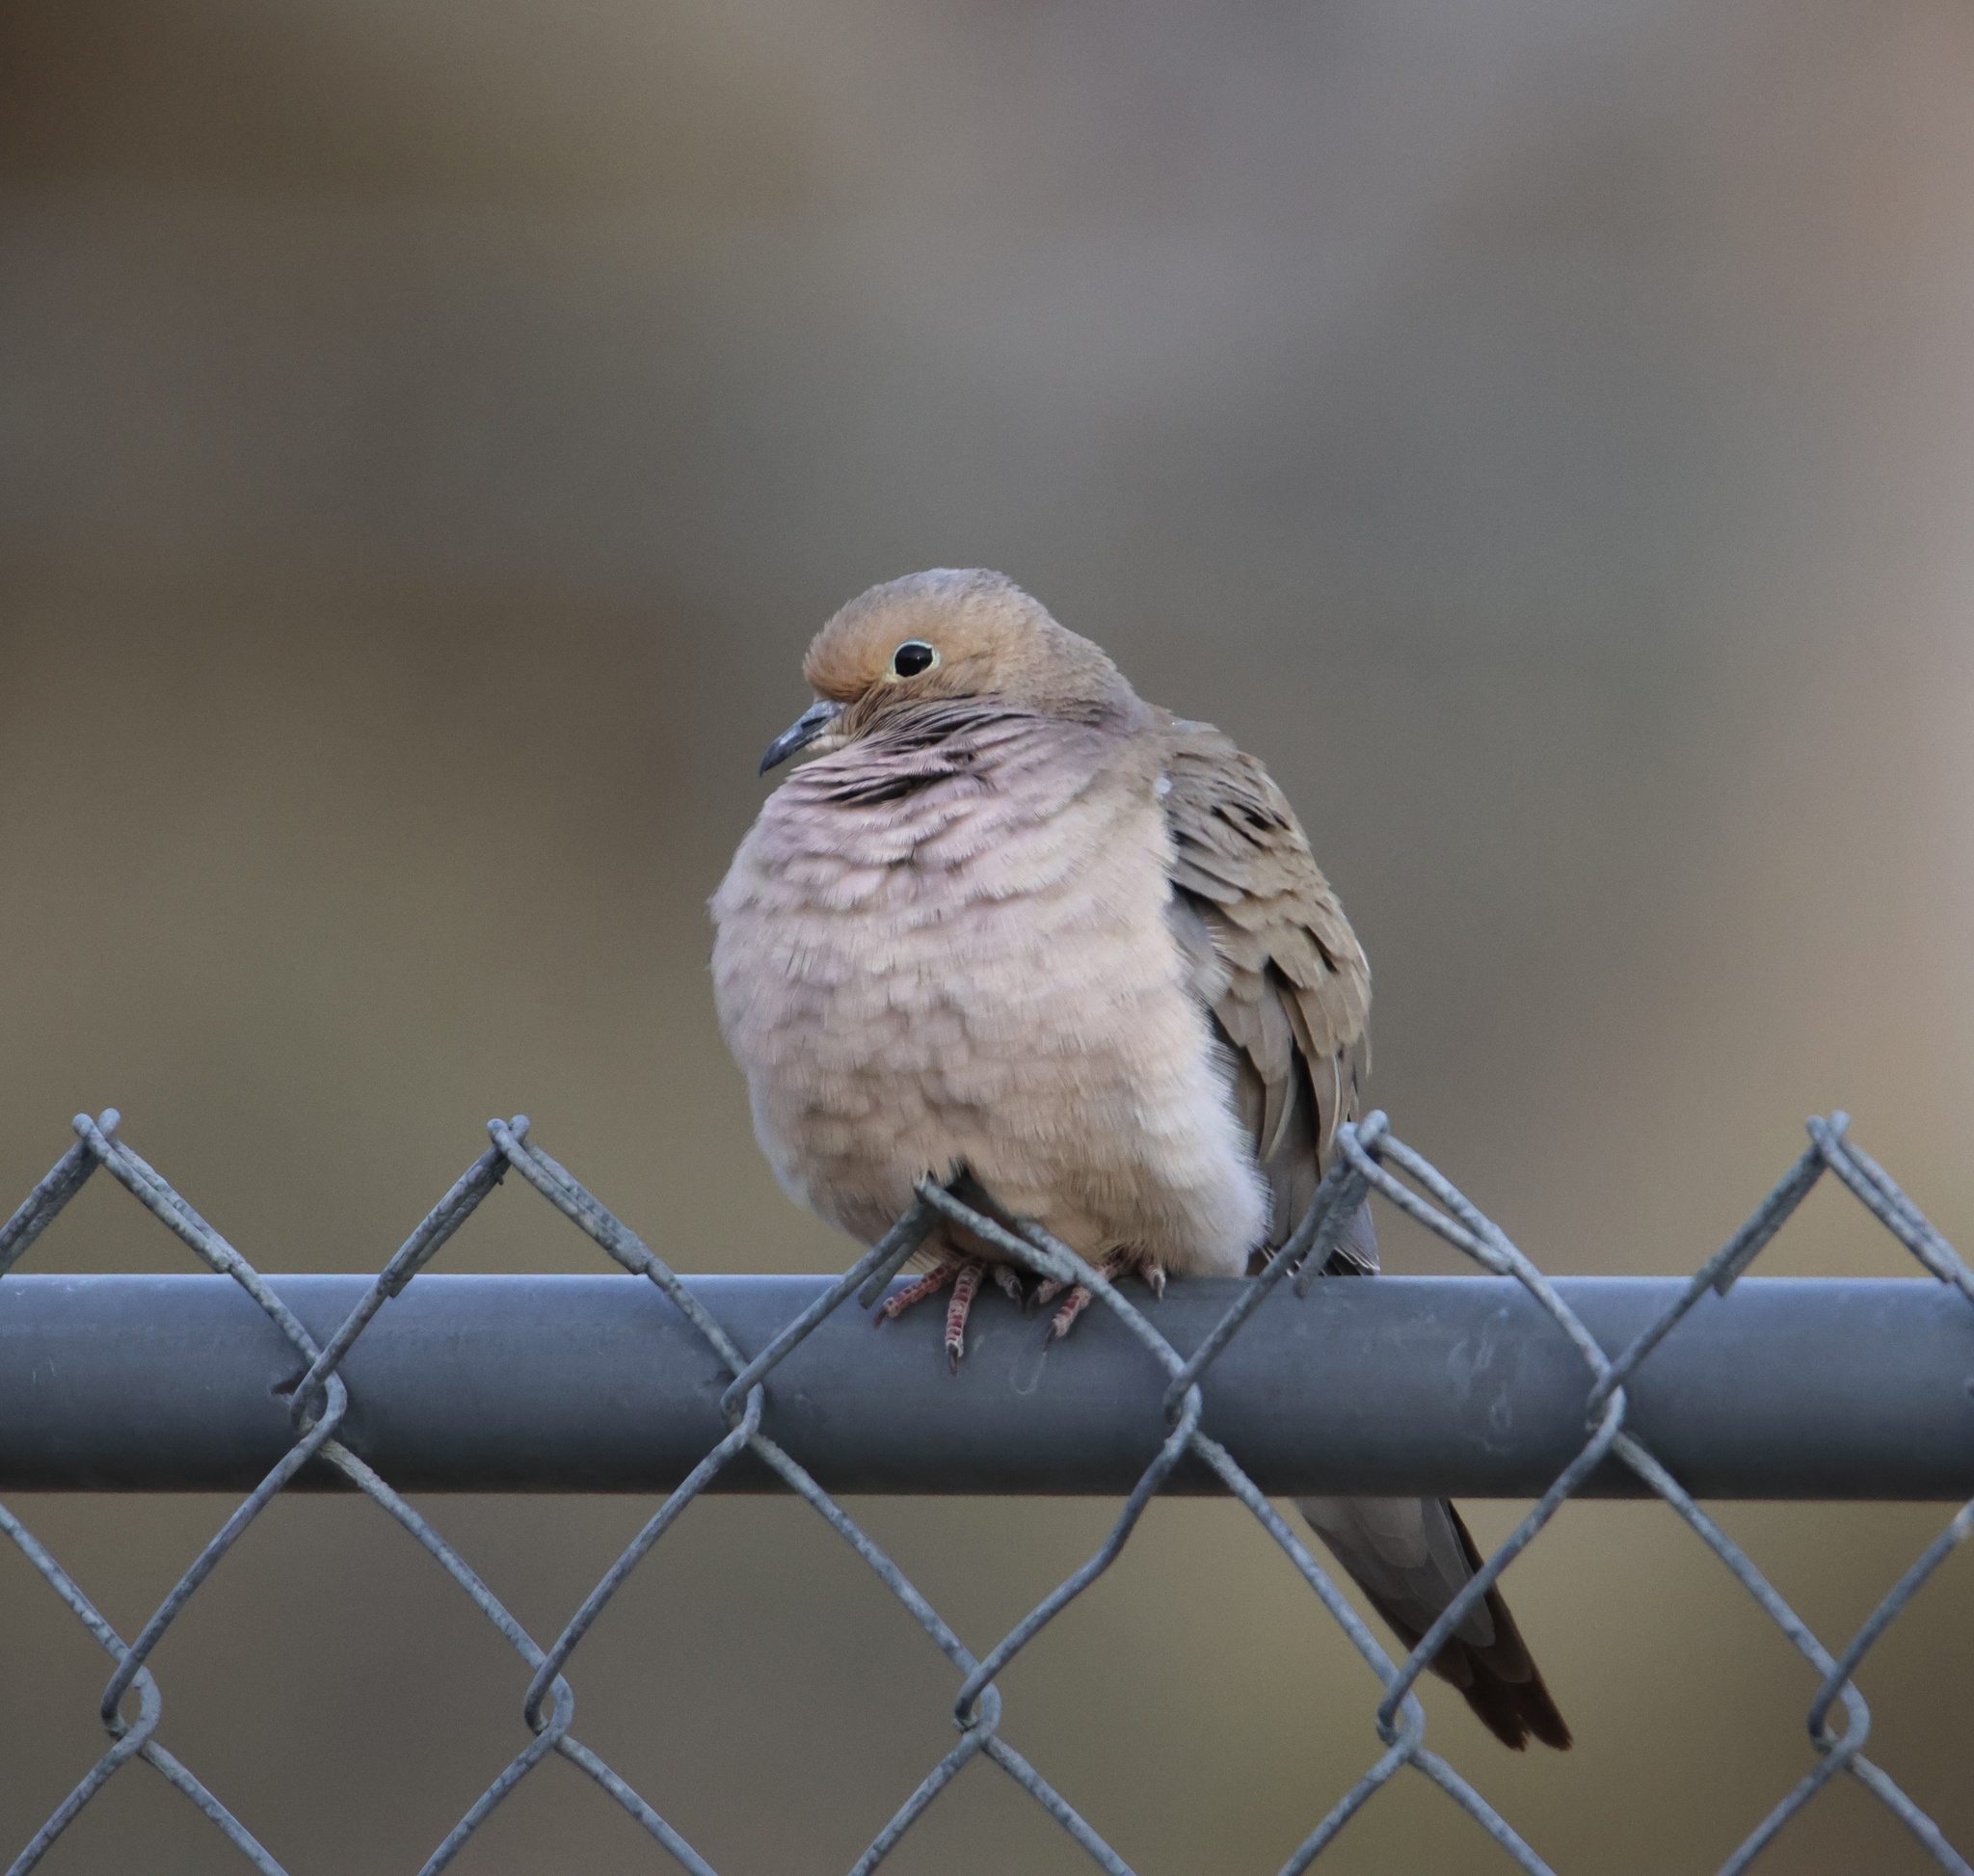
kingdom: Animalia
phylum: Chordata
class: Aves
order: Columbiformes
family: Columbidae
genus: Zenaida
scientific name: Zenaida macroura
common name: Mourning dove
